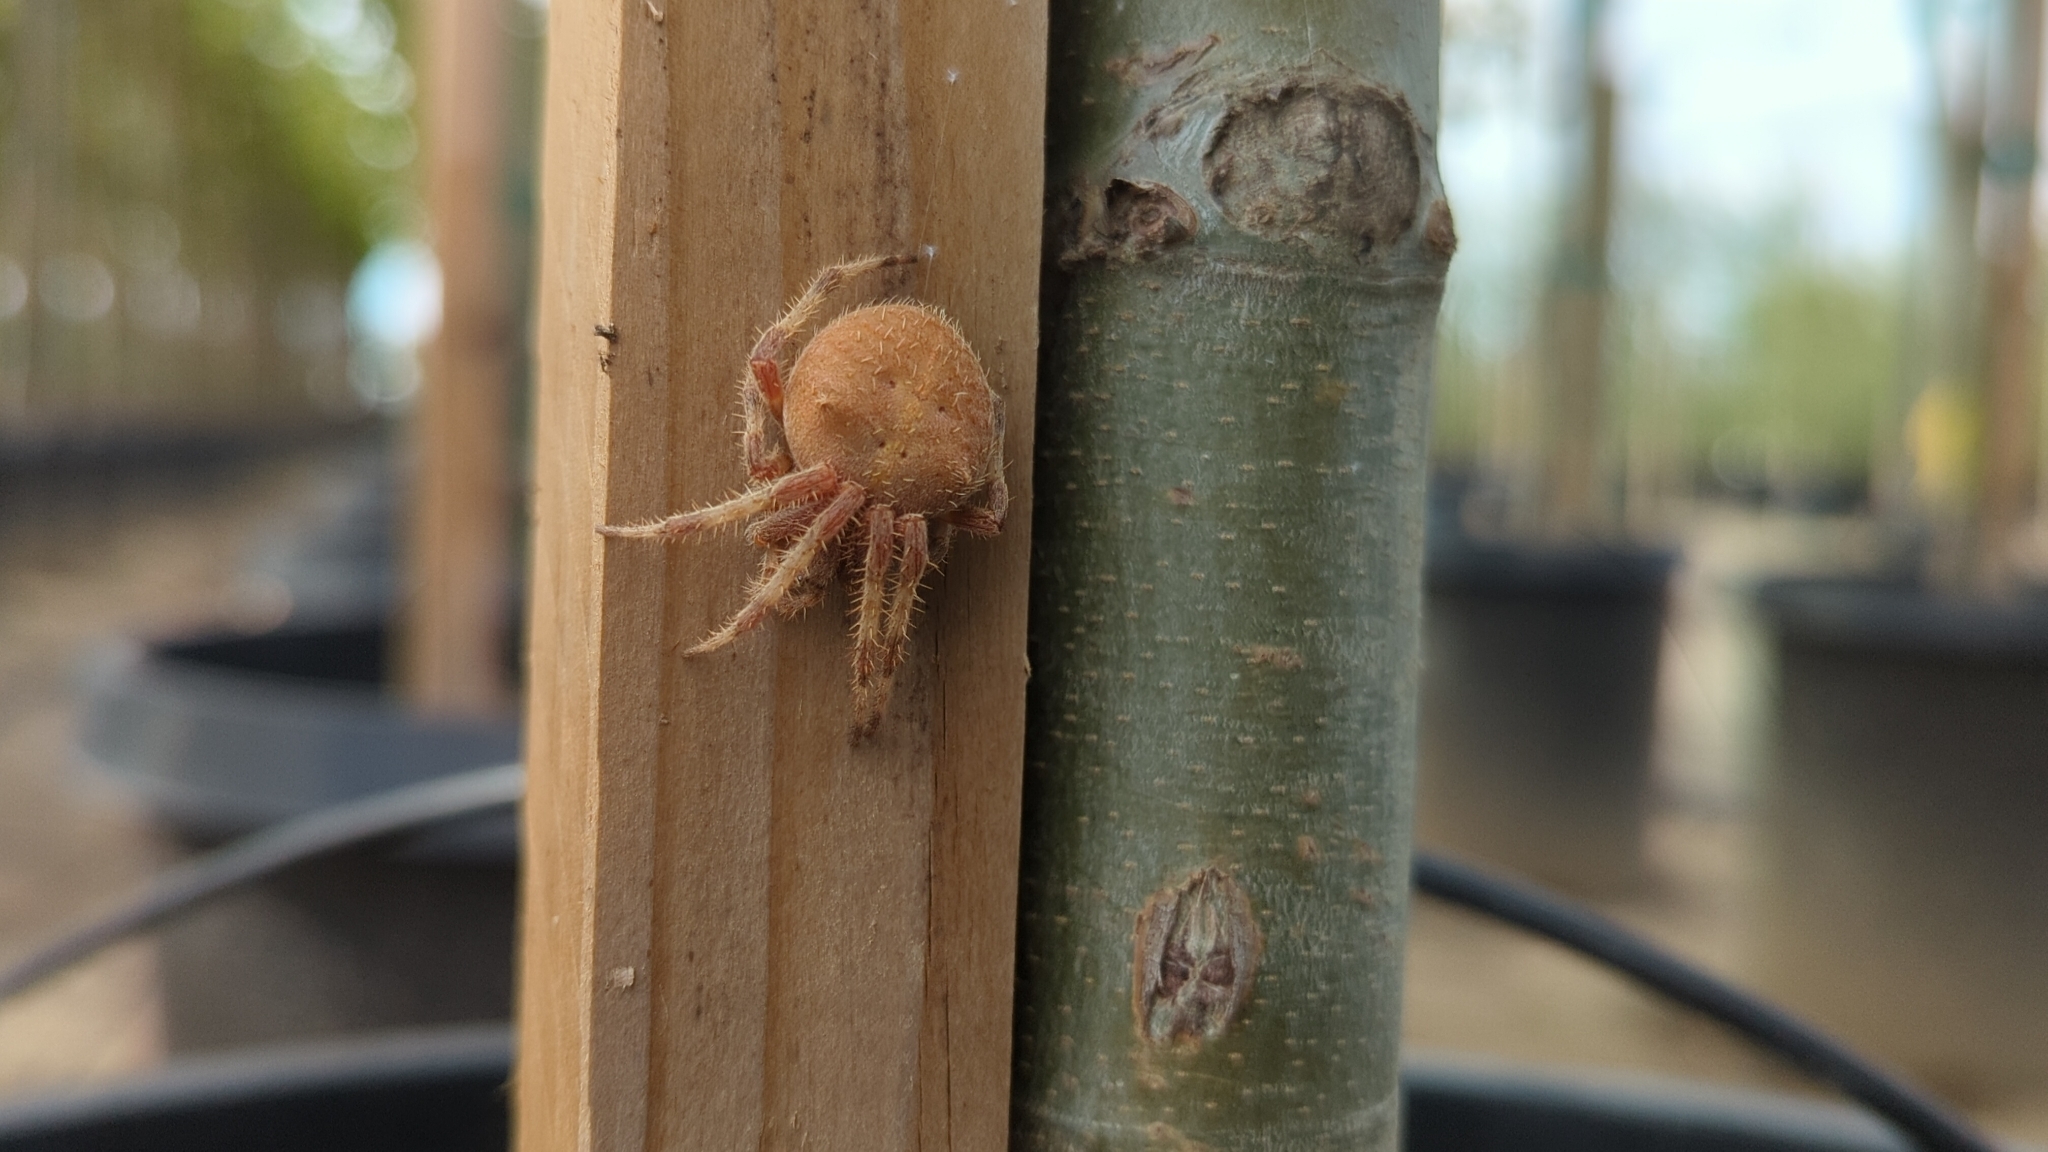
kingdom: Animalia
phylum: Arthropoda
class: Arachnida
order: Araneae
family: Araneidae
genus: Araneus
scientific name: Araneus gemma
